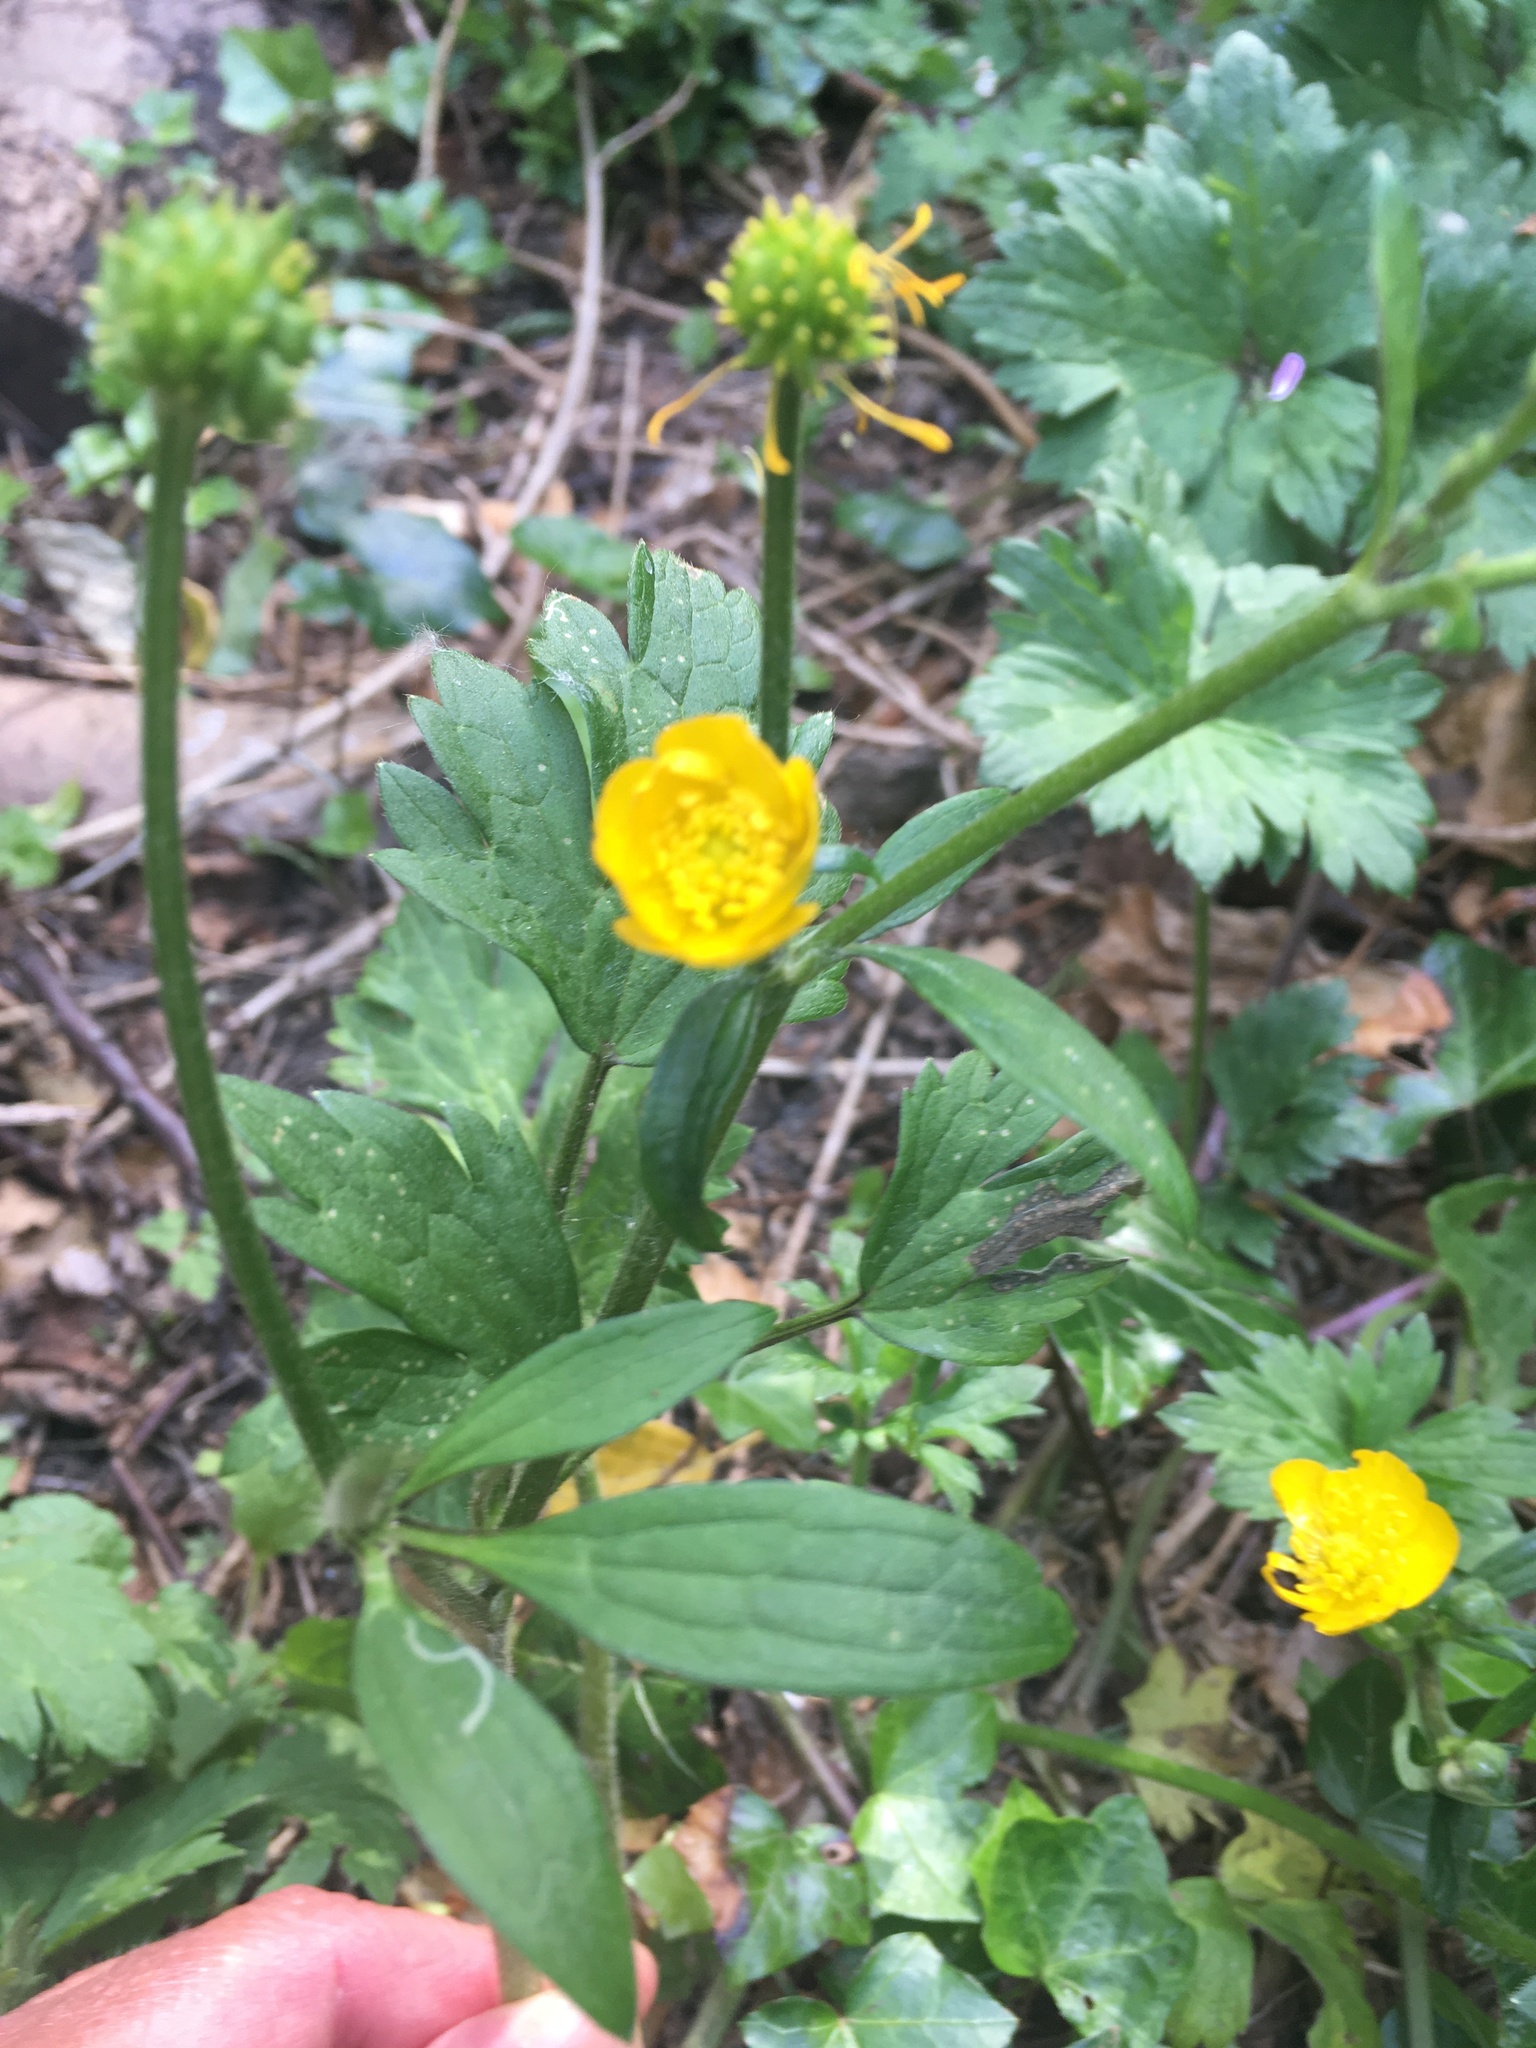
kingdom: Plantae
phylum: Tracheophyta
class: Magnoliopsida
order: Ranunculales
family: Ranunculaceae
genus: Ranunculus
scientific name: Ranunculus repens
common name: Creeping buttercup
